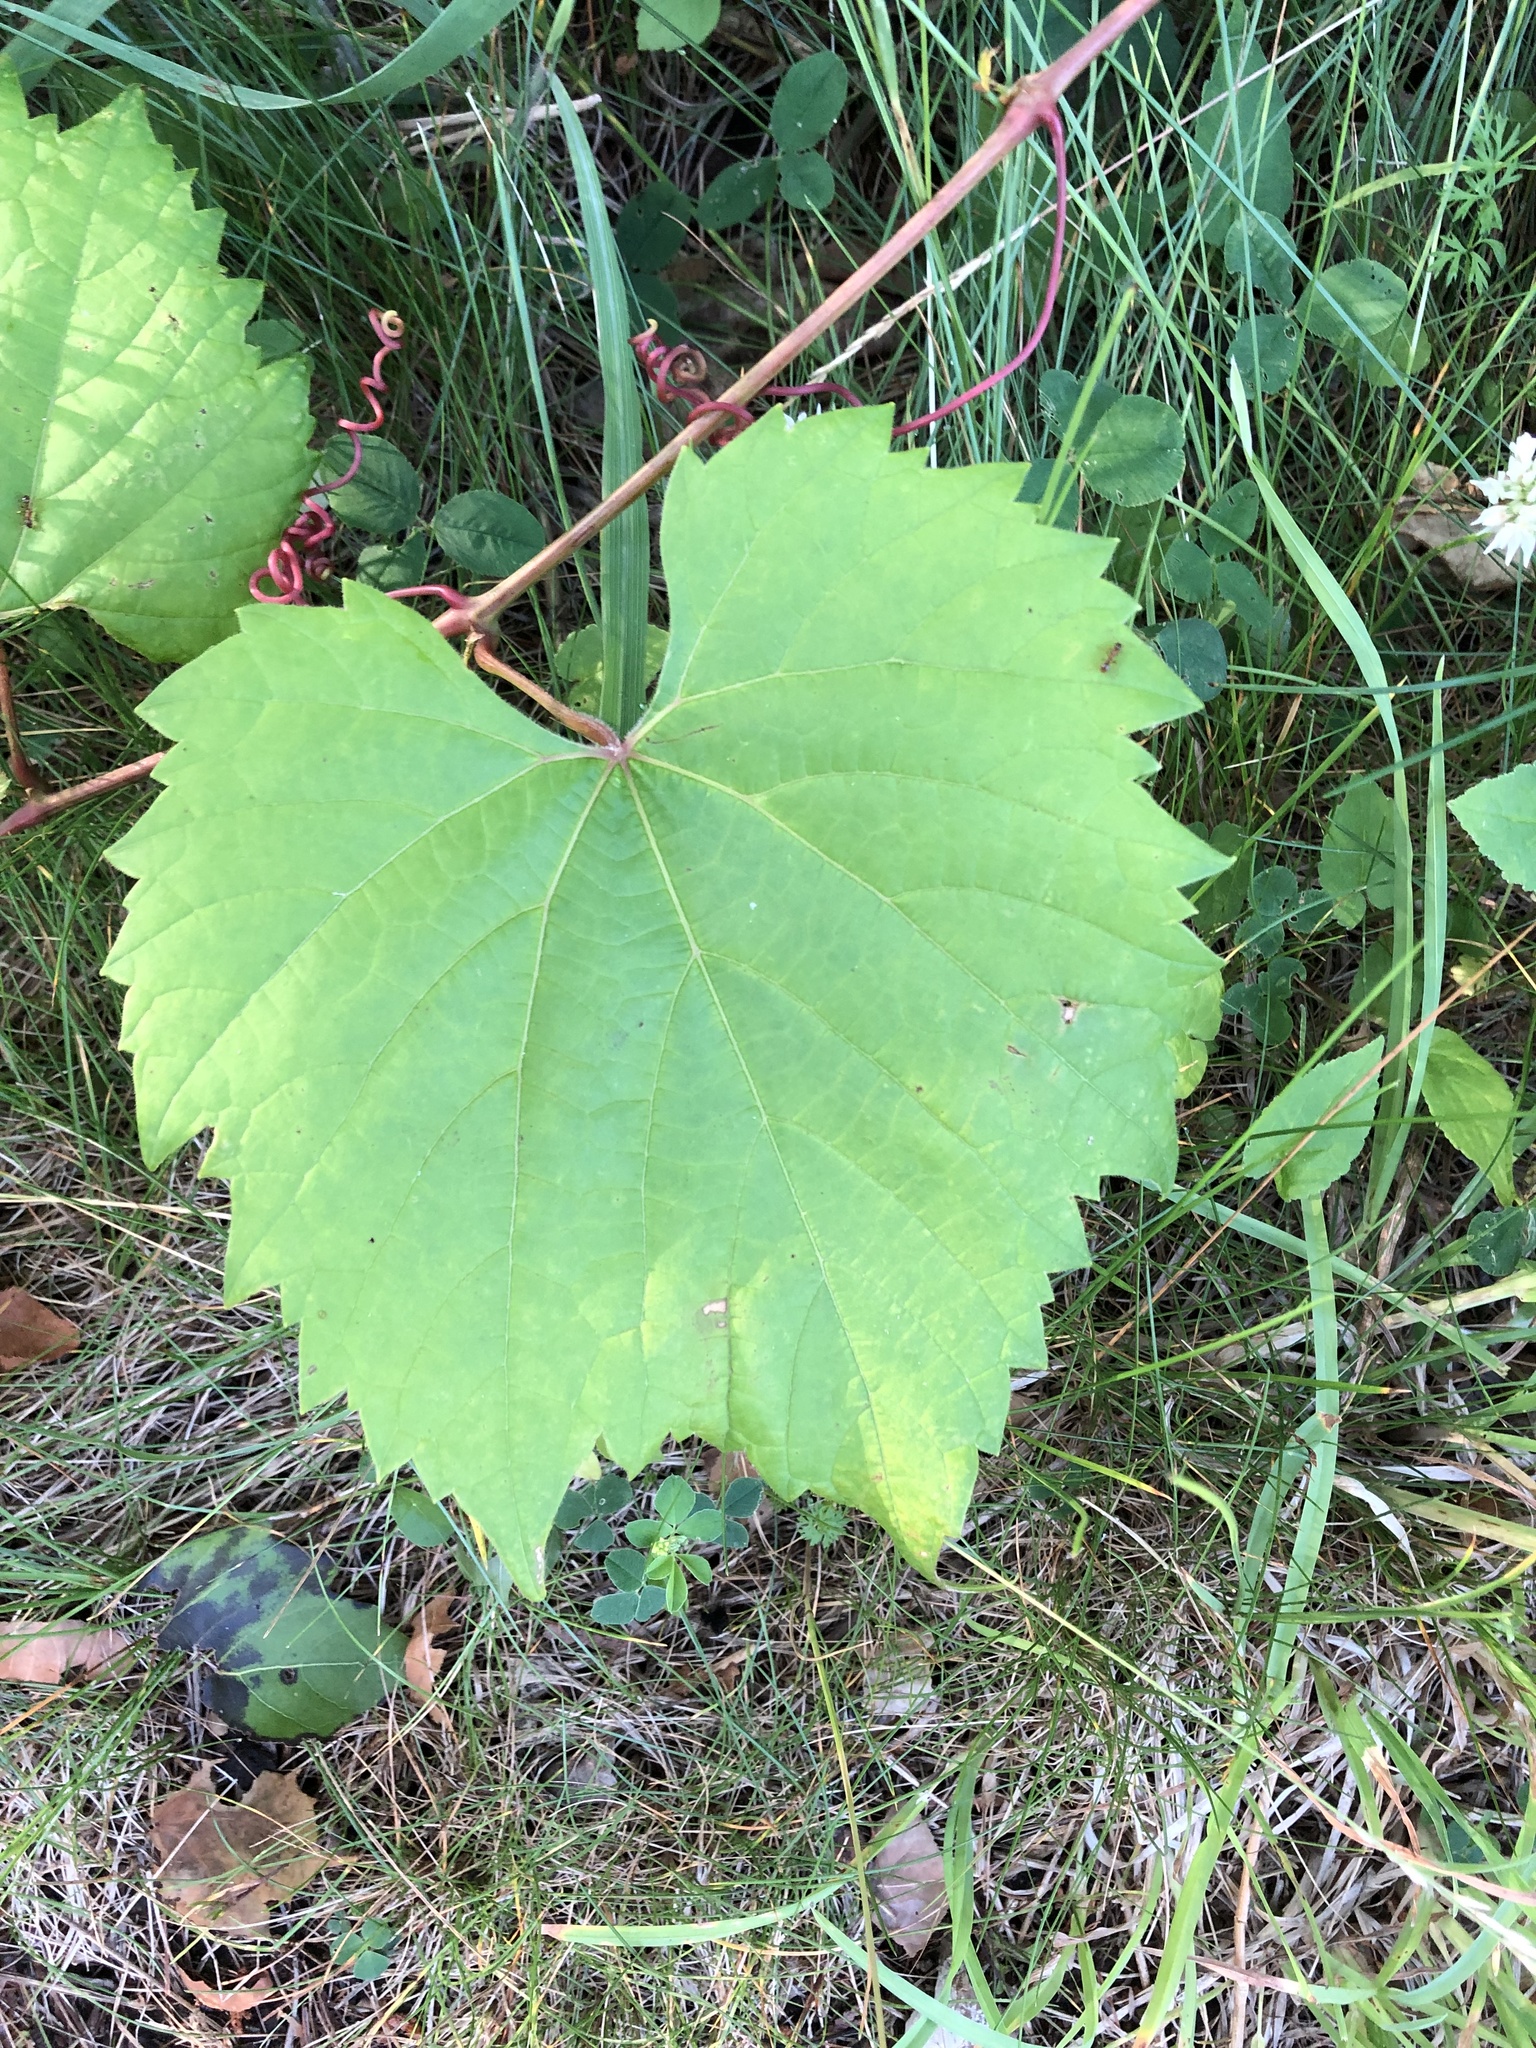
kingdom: Plantae
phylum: Tracheophyta
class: Magnoliopsida
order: Vitales
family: Vitaceae
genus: Vitis
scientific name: Vitis riparia
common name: Frost grape
